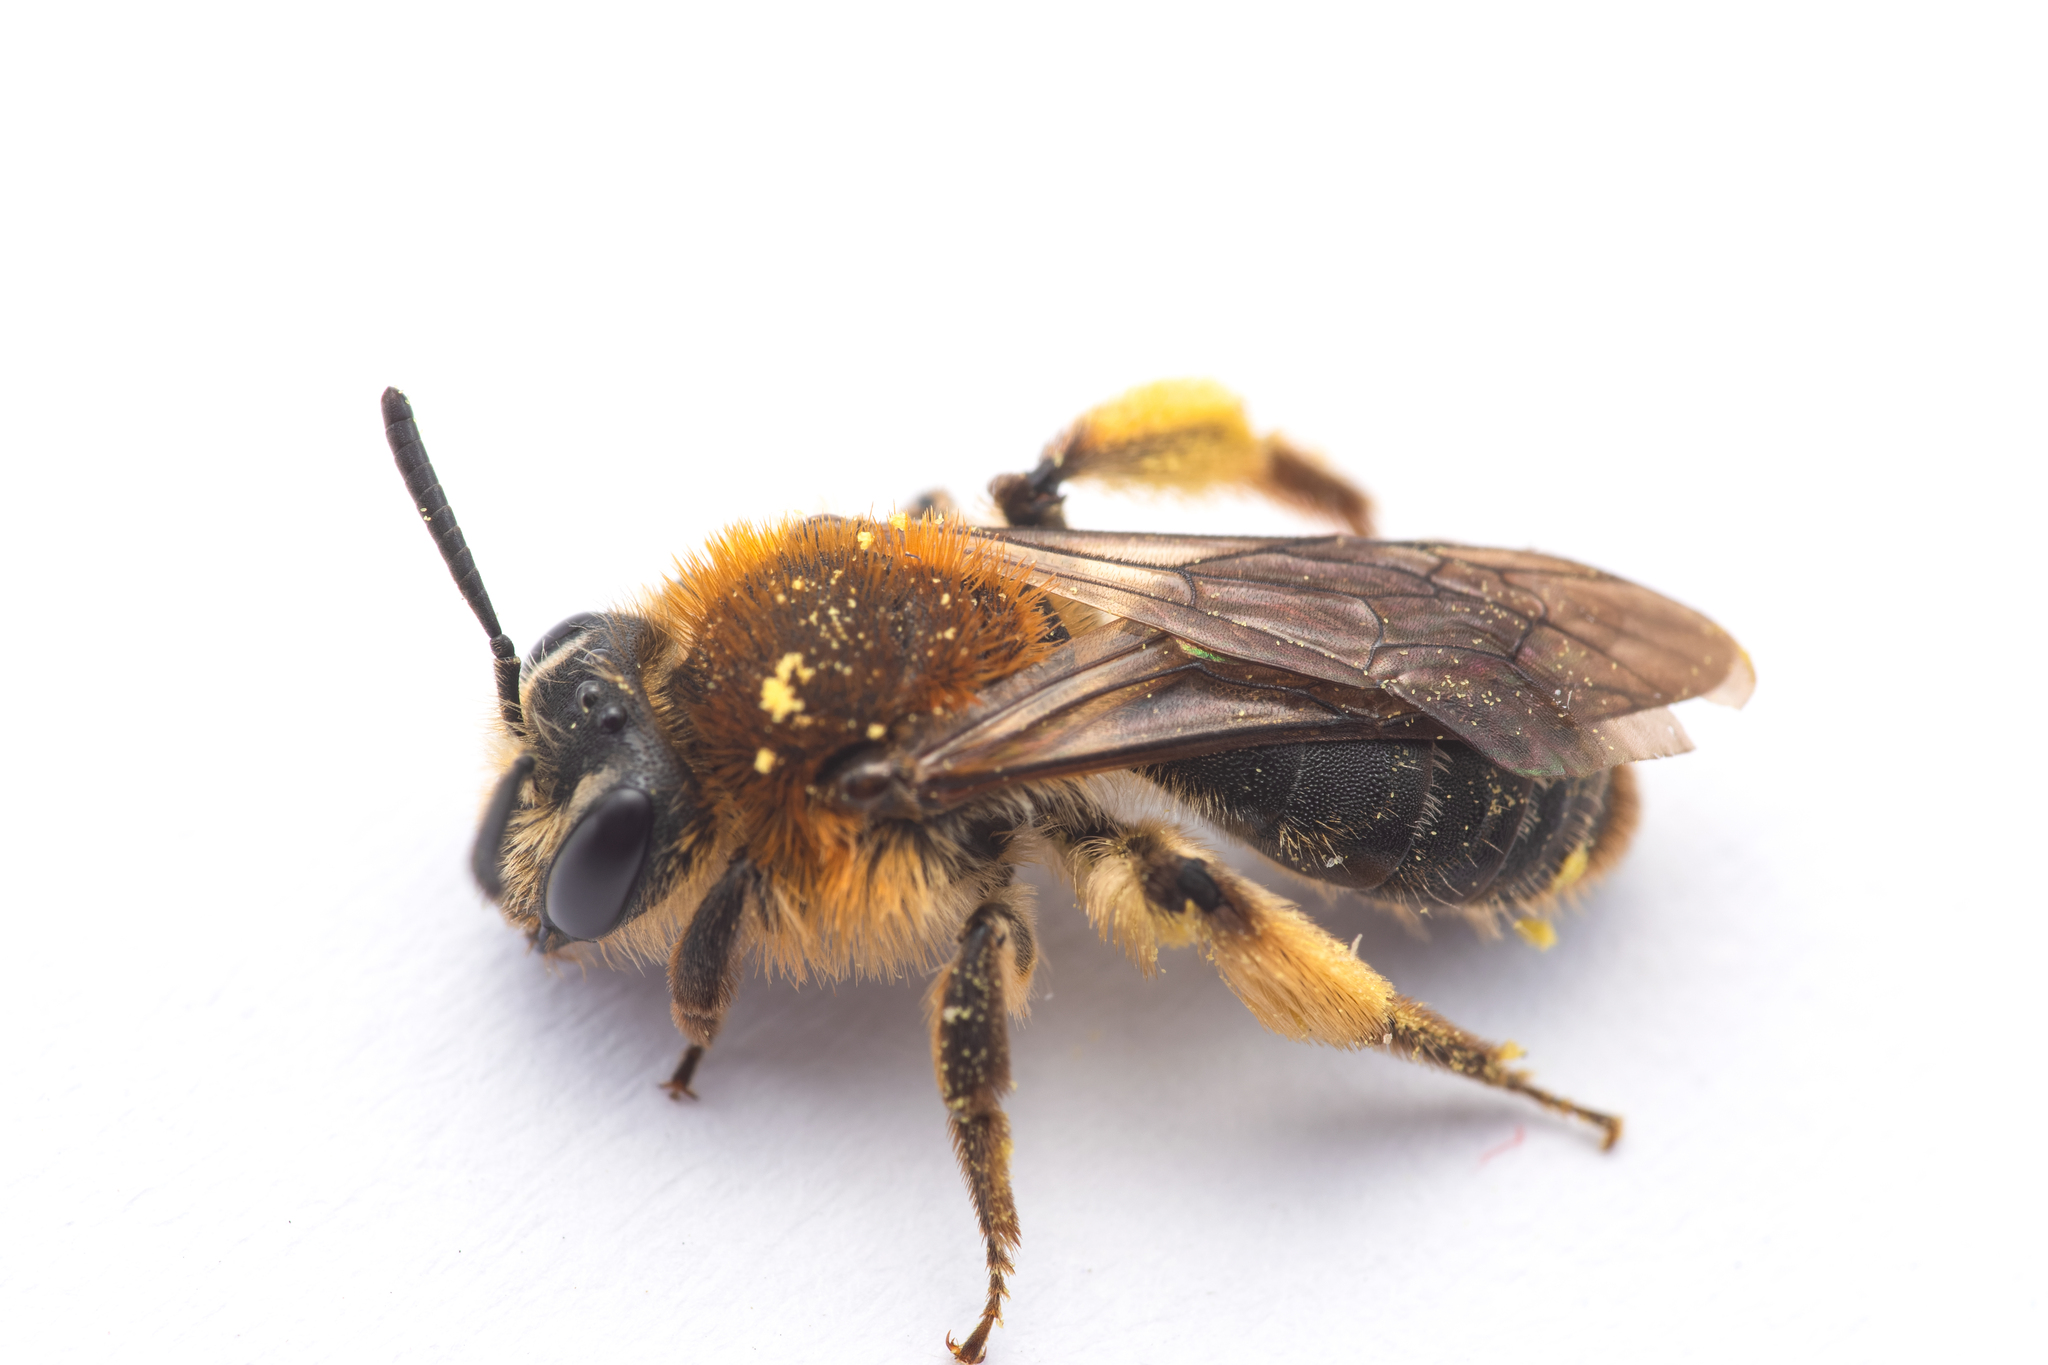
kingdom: Animalia
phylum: Arthropoda
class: Insecta
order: Hymenoptera
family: Andrenidae
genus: Andrena
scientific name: Andrena lagopus
